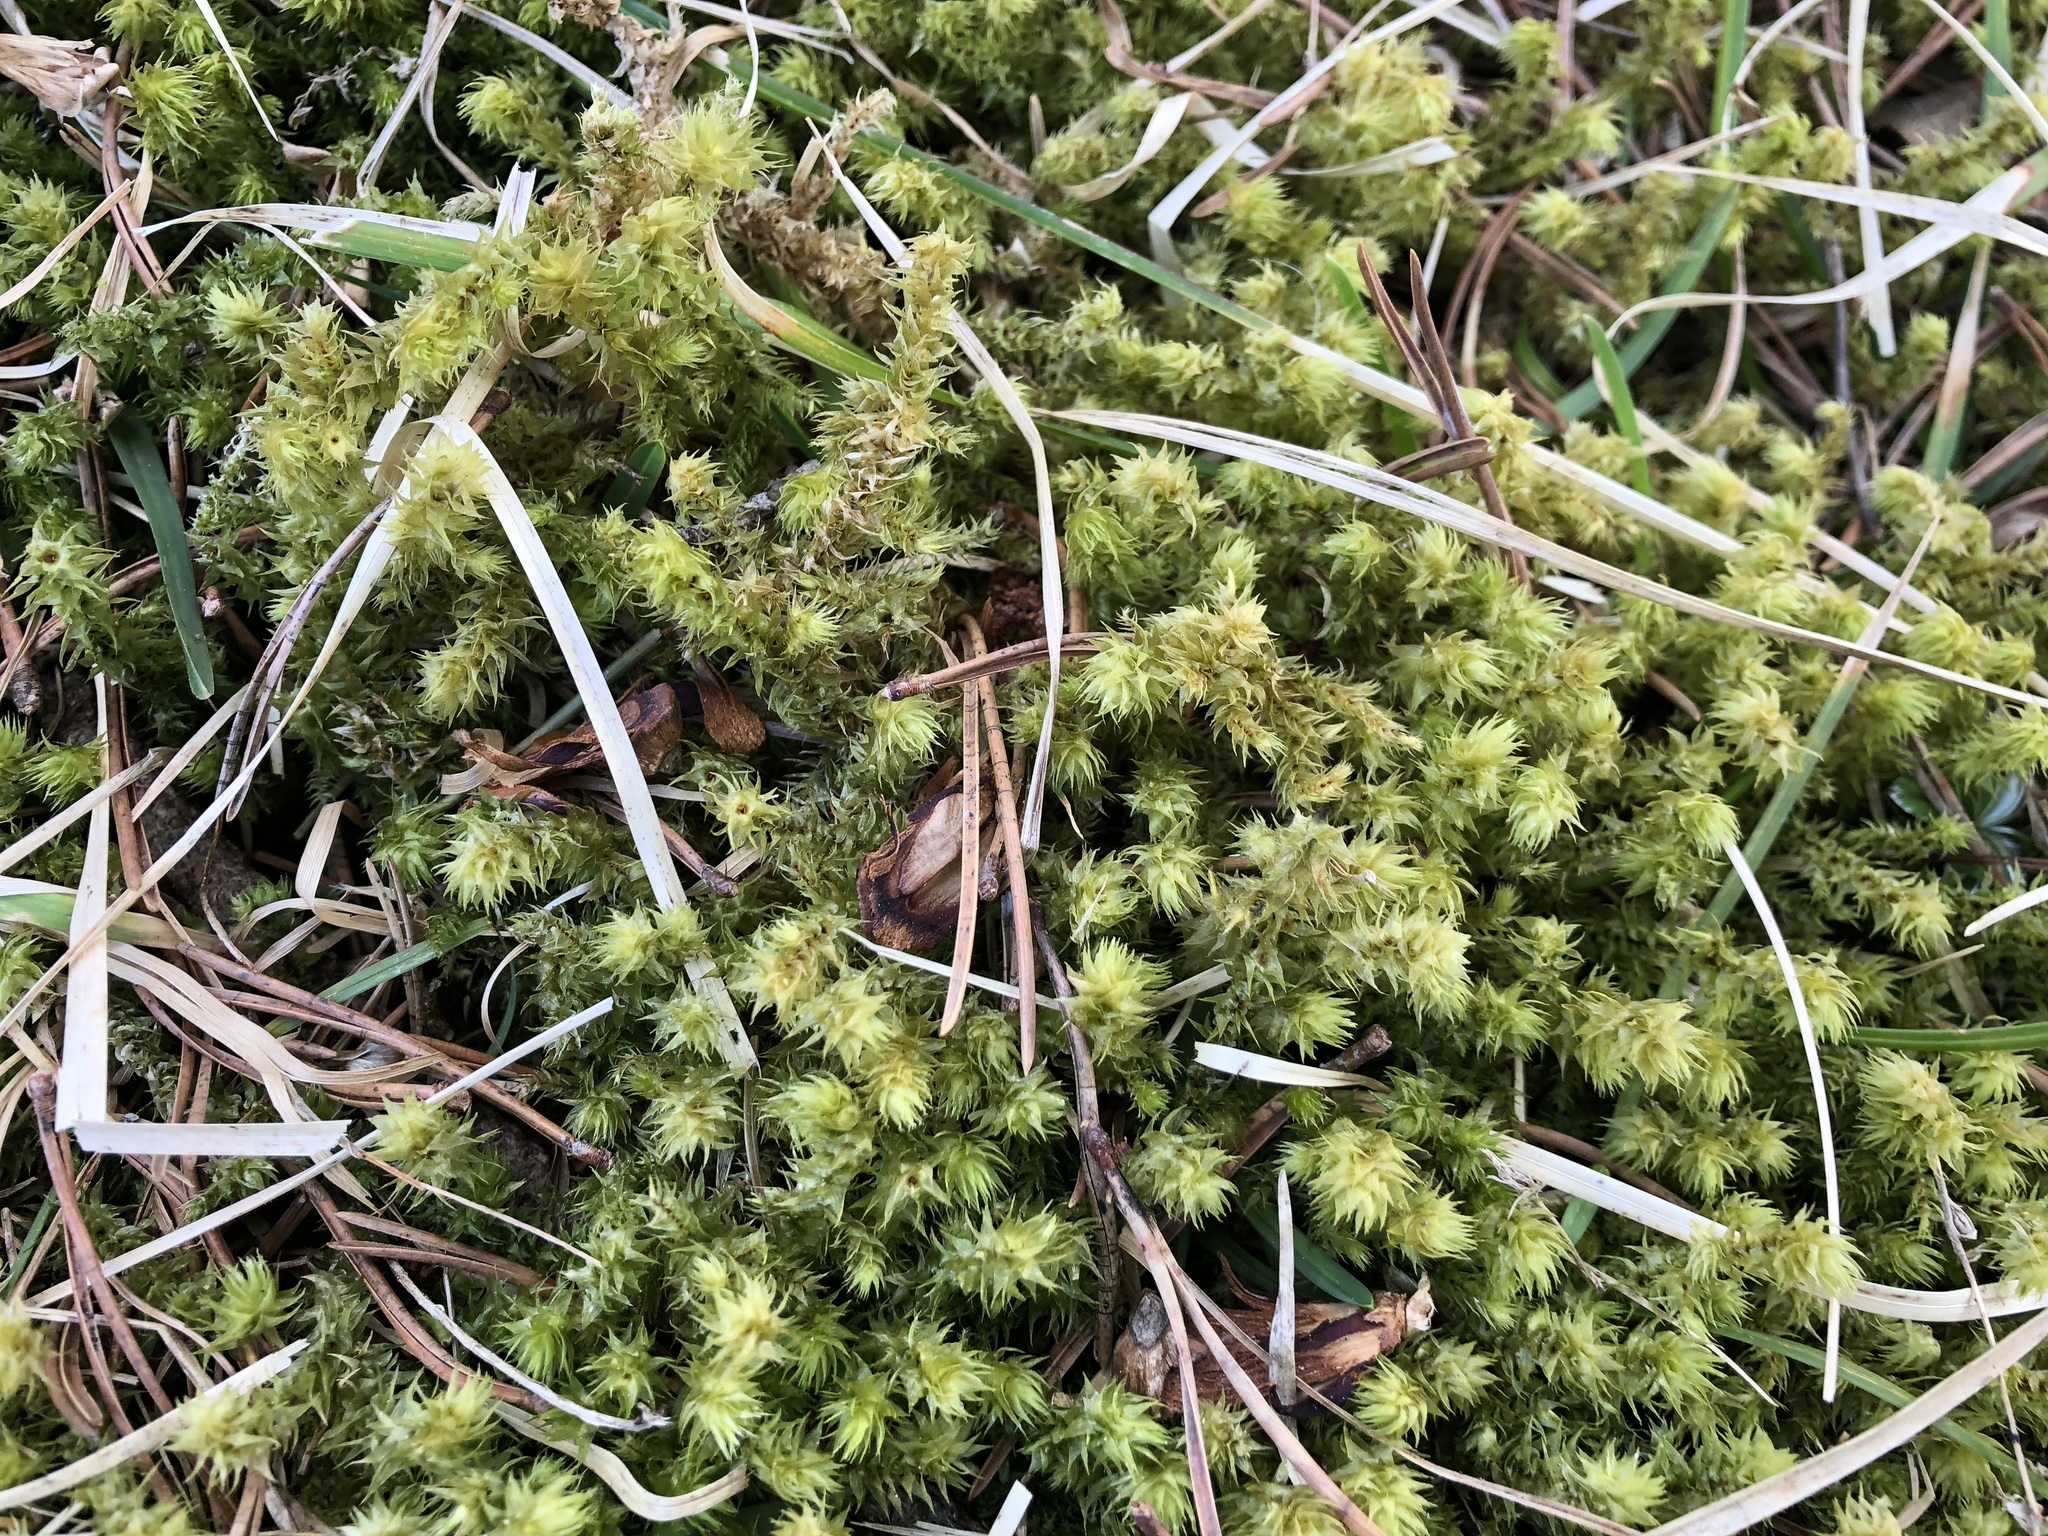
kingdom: Plantae
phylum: Bryophyta
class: Bryopsida
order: Hypnales
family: Hylocomiaceae
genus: Hylocomiadelphus
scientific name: Hylocomiadelphus triquetrus
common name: Rough goose neck moss
